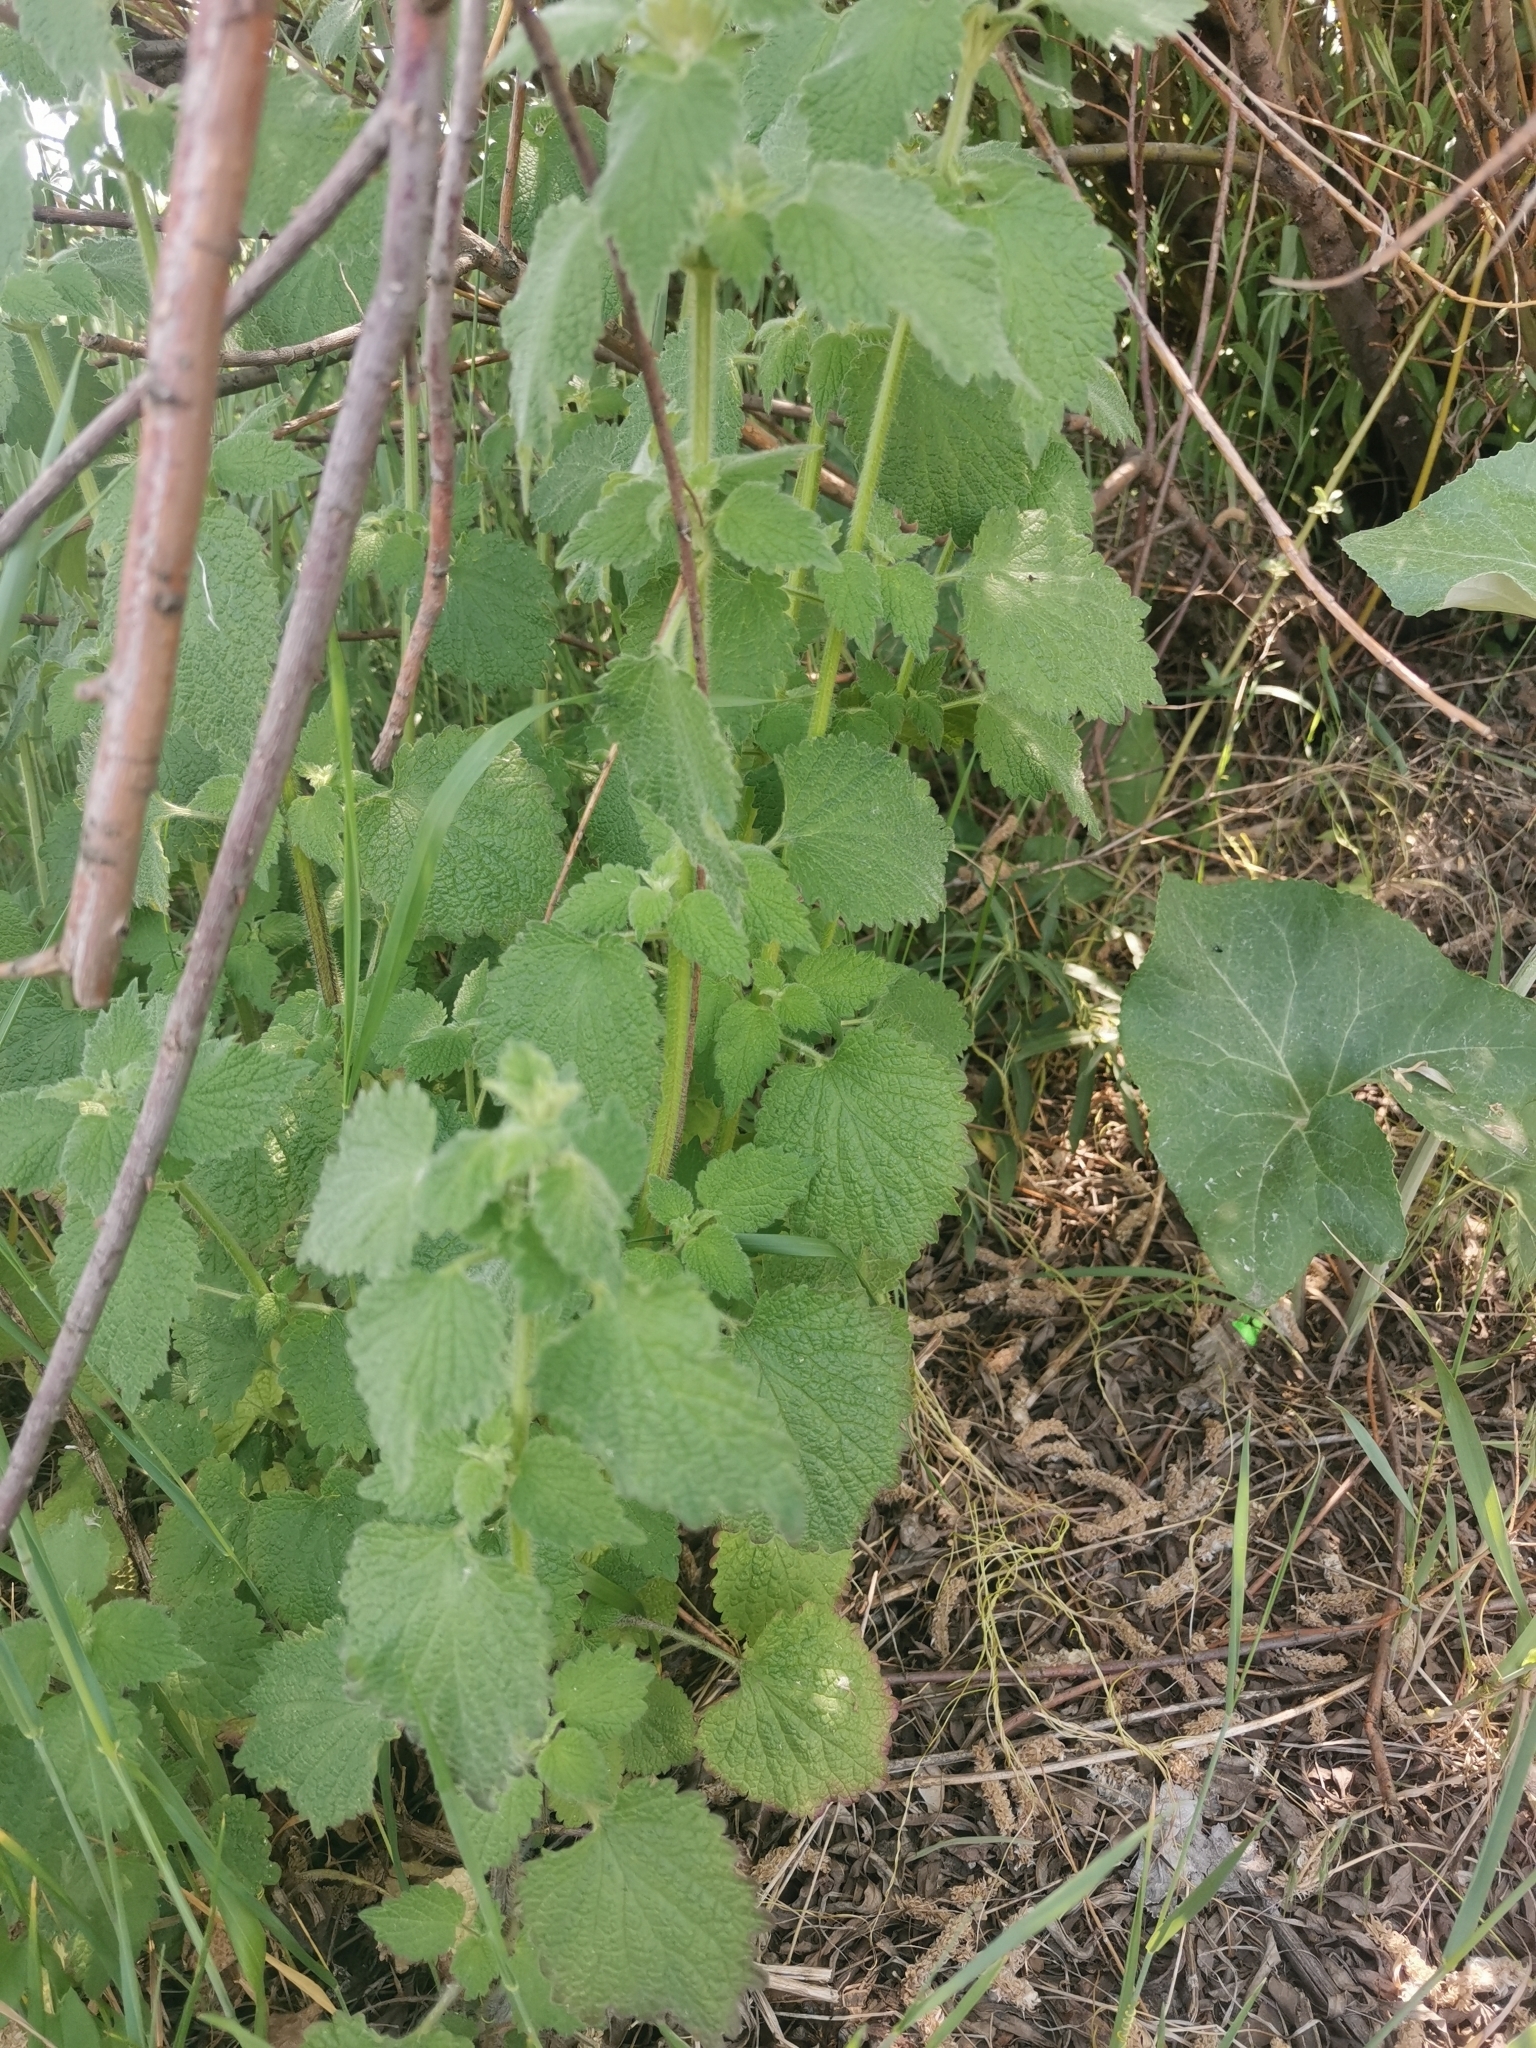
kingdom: Plantae
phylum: Tracheophyta
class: Magnoliopsida
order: Lamiales
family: Lamiaceae
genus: Ballota
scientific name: Ballota nigra
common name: Black horehound
